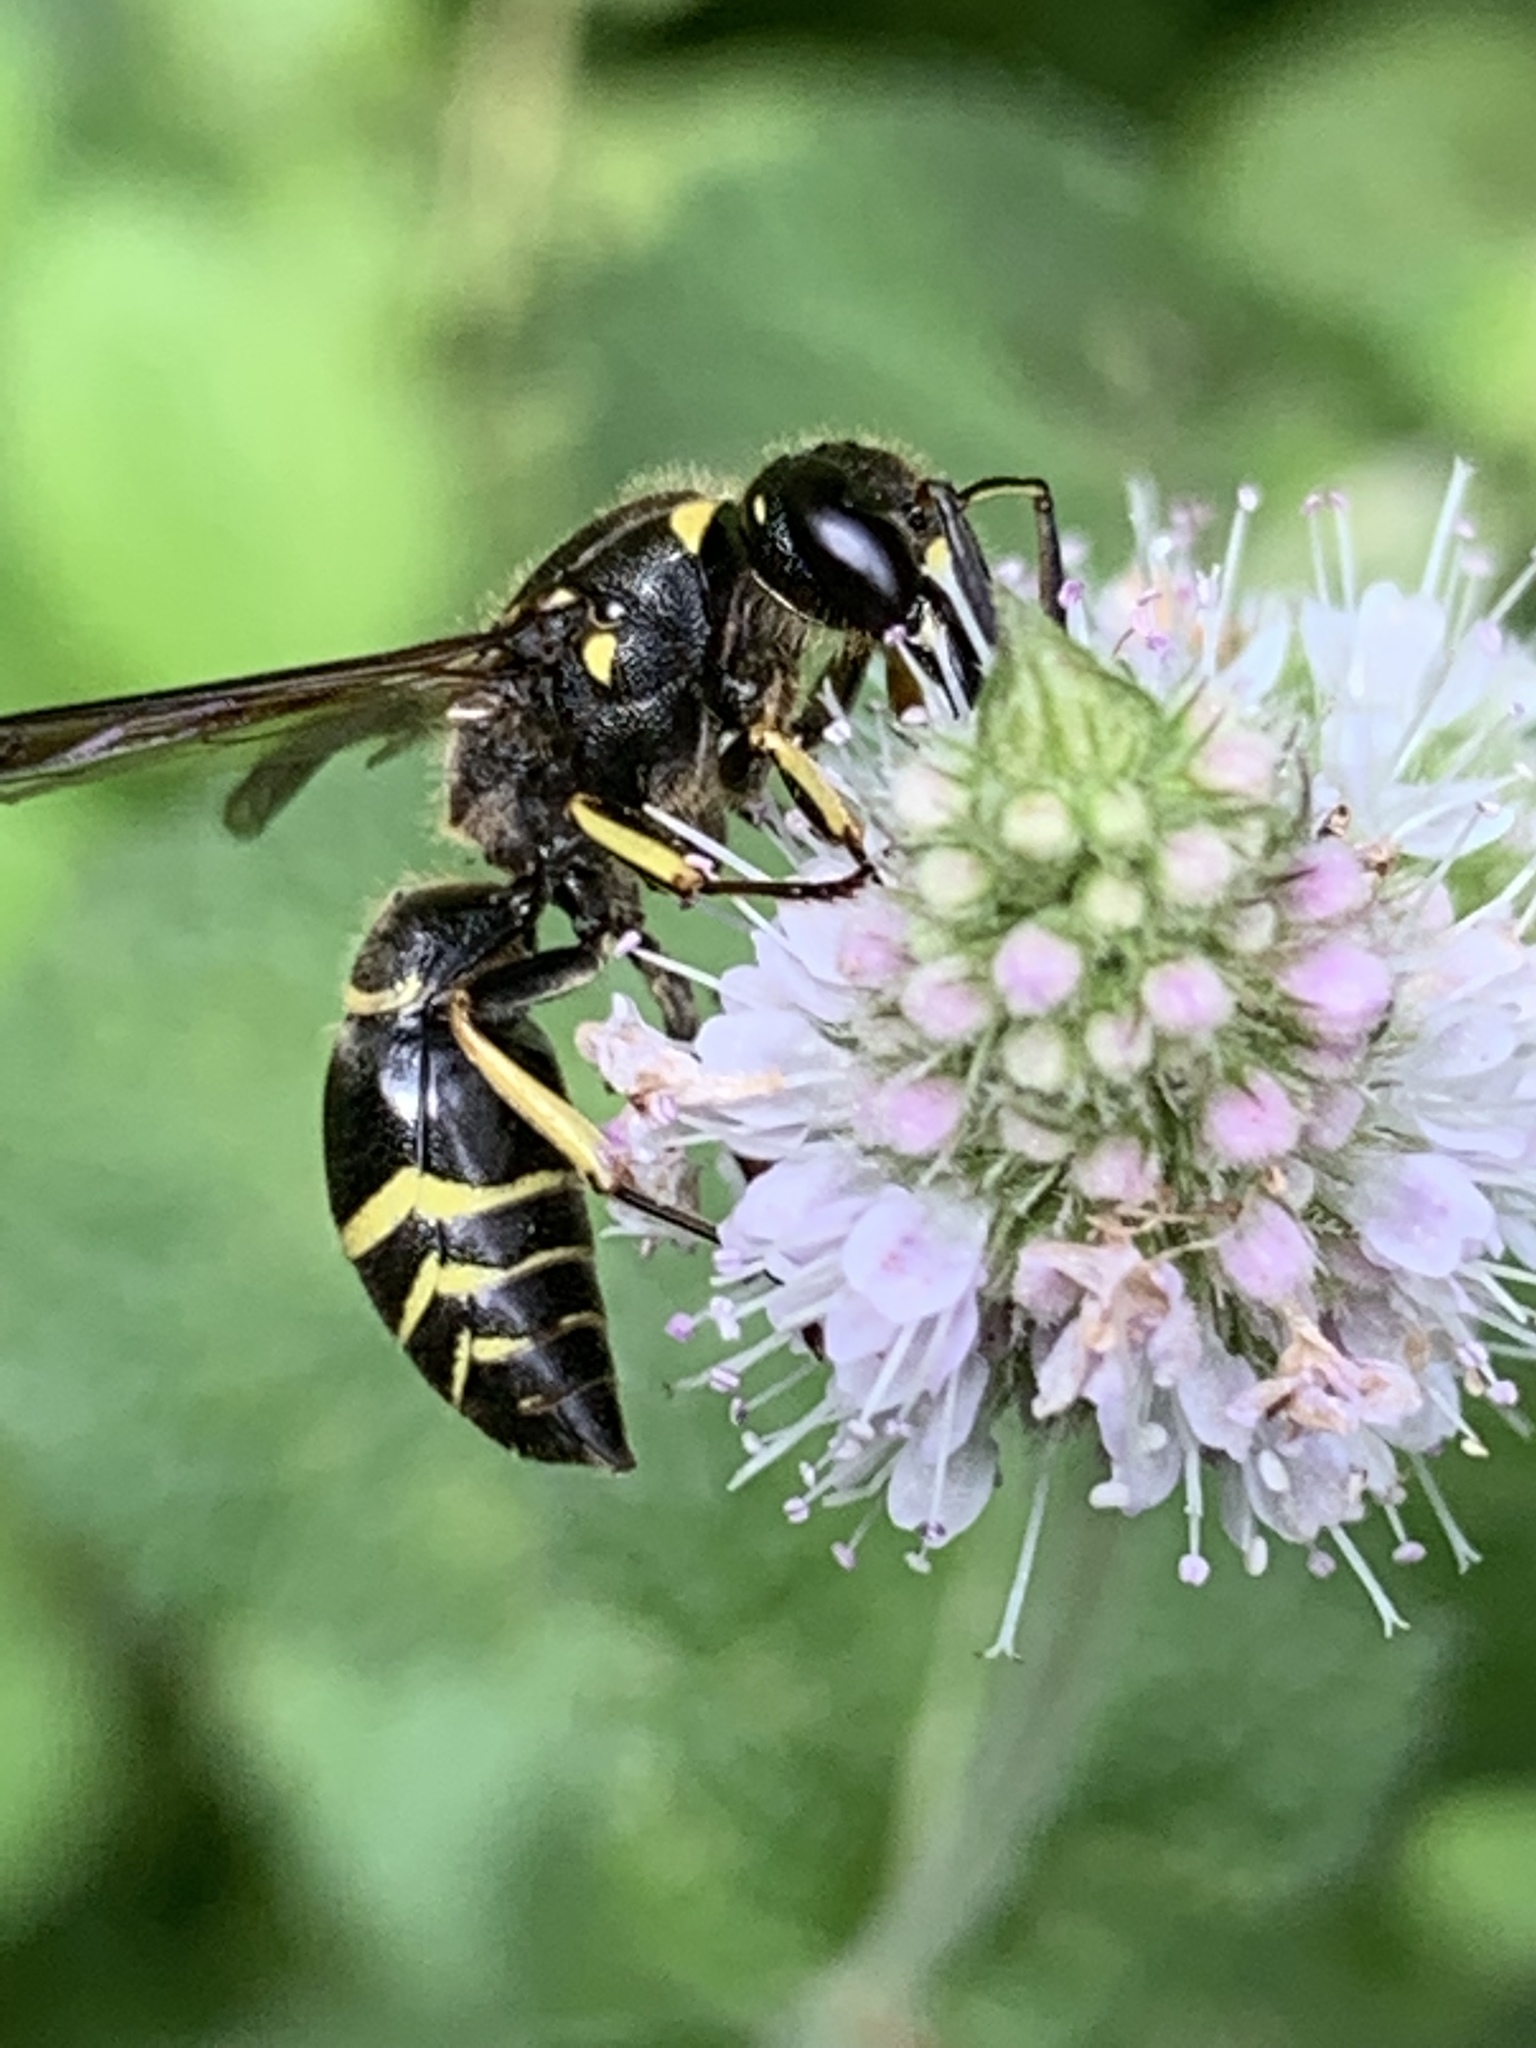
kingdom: Animalia
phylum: Arthropoda
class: Insecta
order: Hymenoptera
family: Vespidae
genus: Ancistrocerus
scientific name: Ancistrocerus
